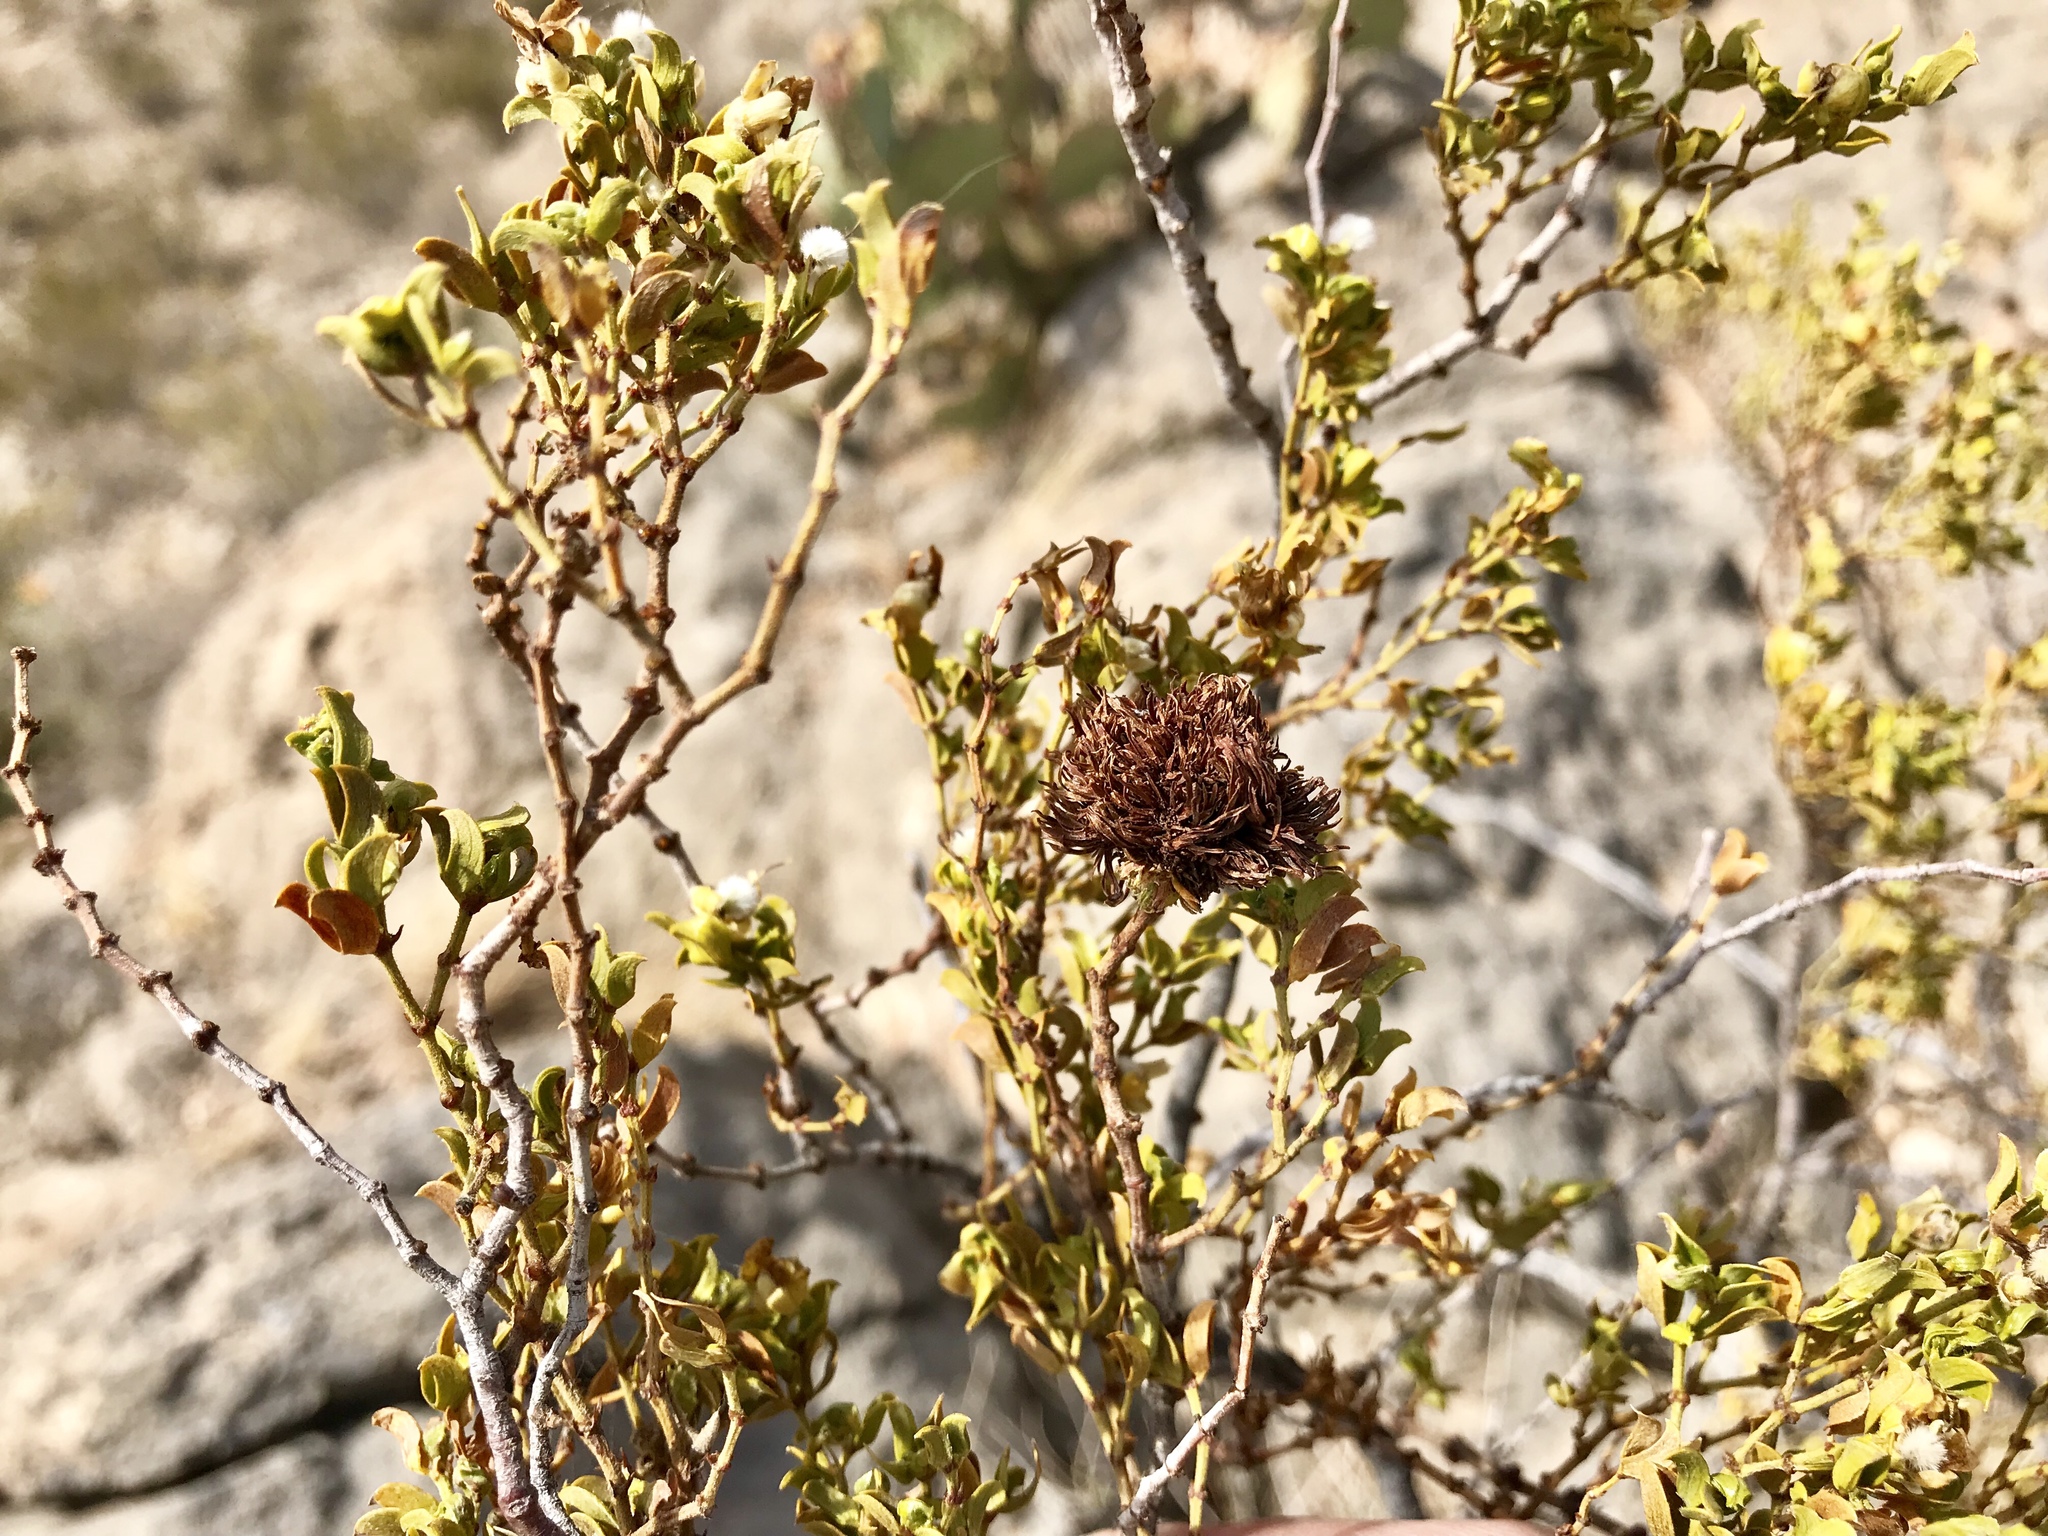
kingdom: Animalia
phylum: Arthropoda
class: Insecta
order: Diptera
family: Cecidomyiidae
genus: Asphondylia
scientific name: Asphondylia auripila
